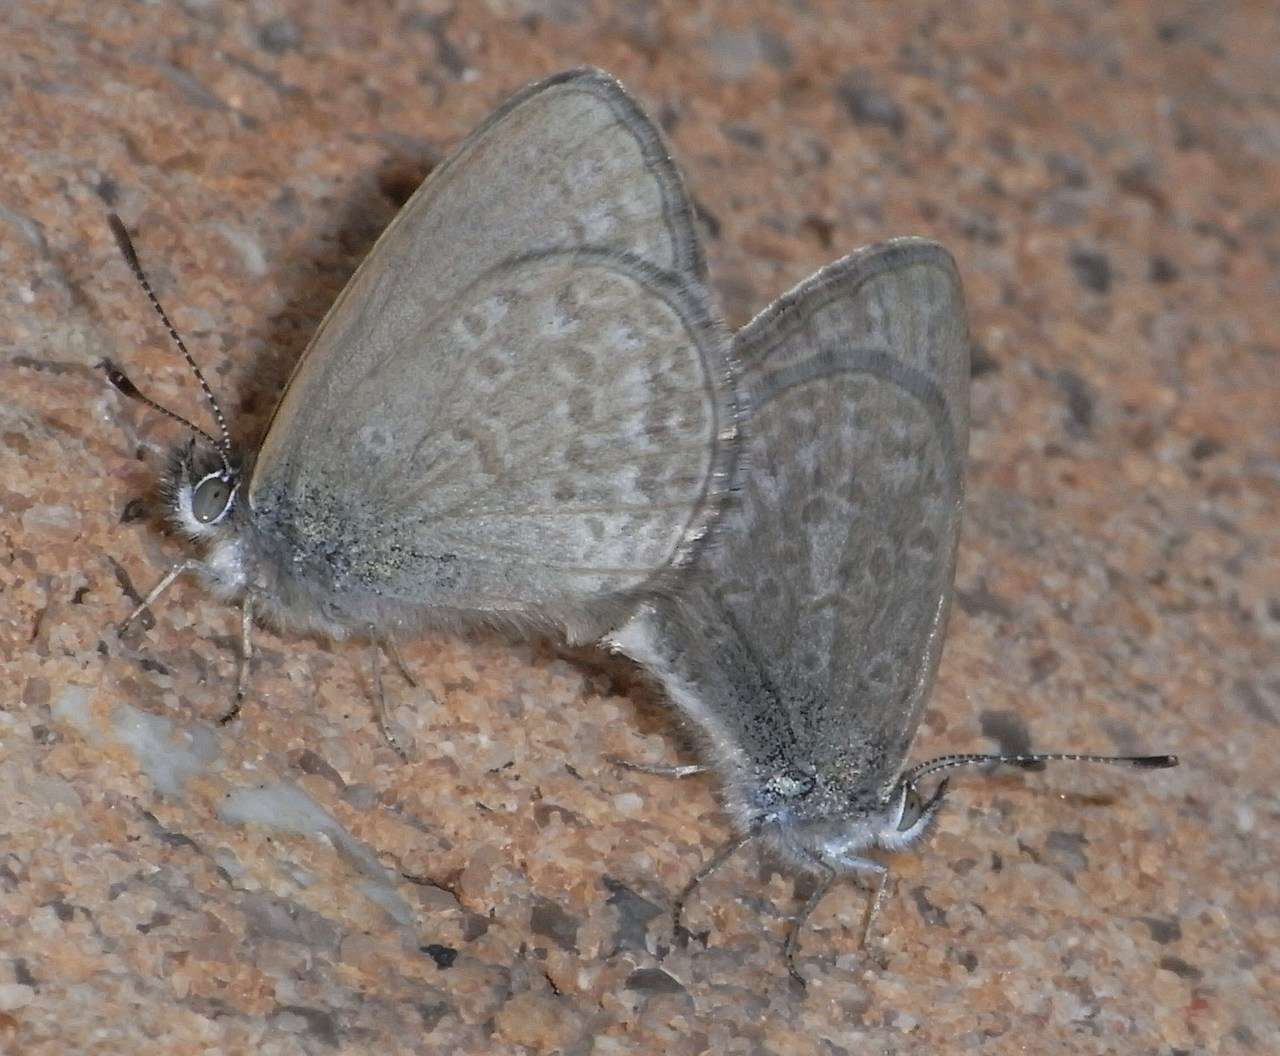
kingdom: Animalia
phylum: Arthropoda
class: Insecta
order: Lepidoptera
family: Lycaenidae
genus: Zizina
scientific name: Zizina labradus
